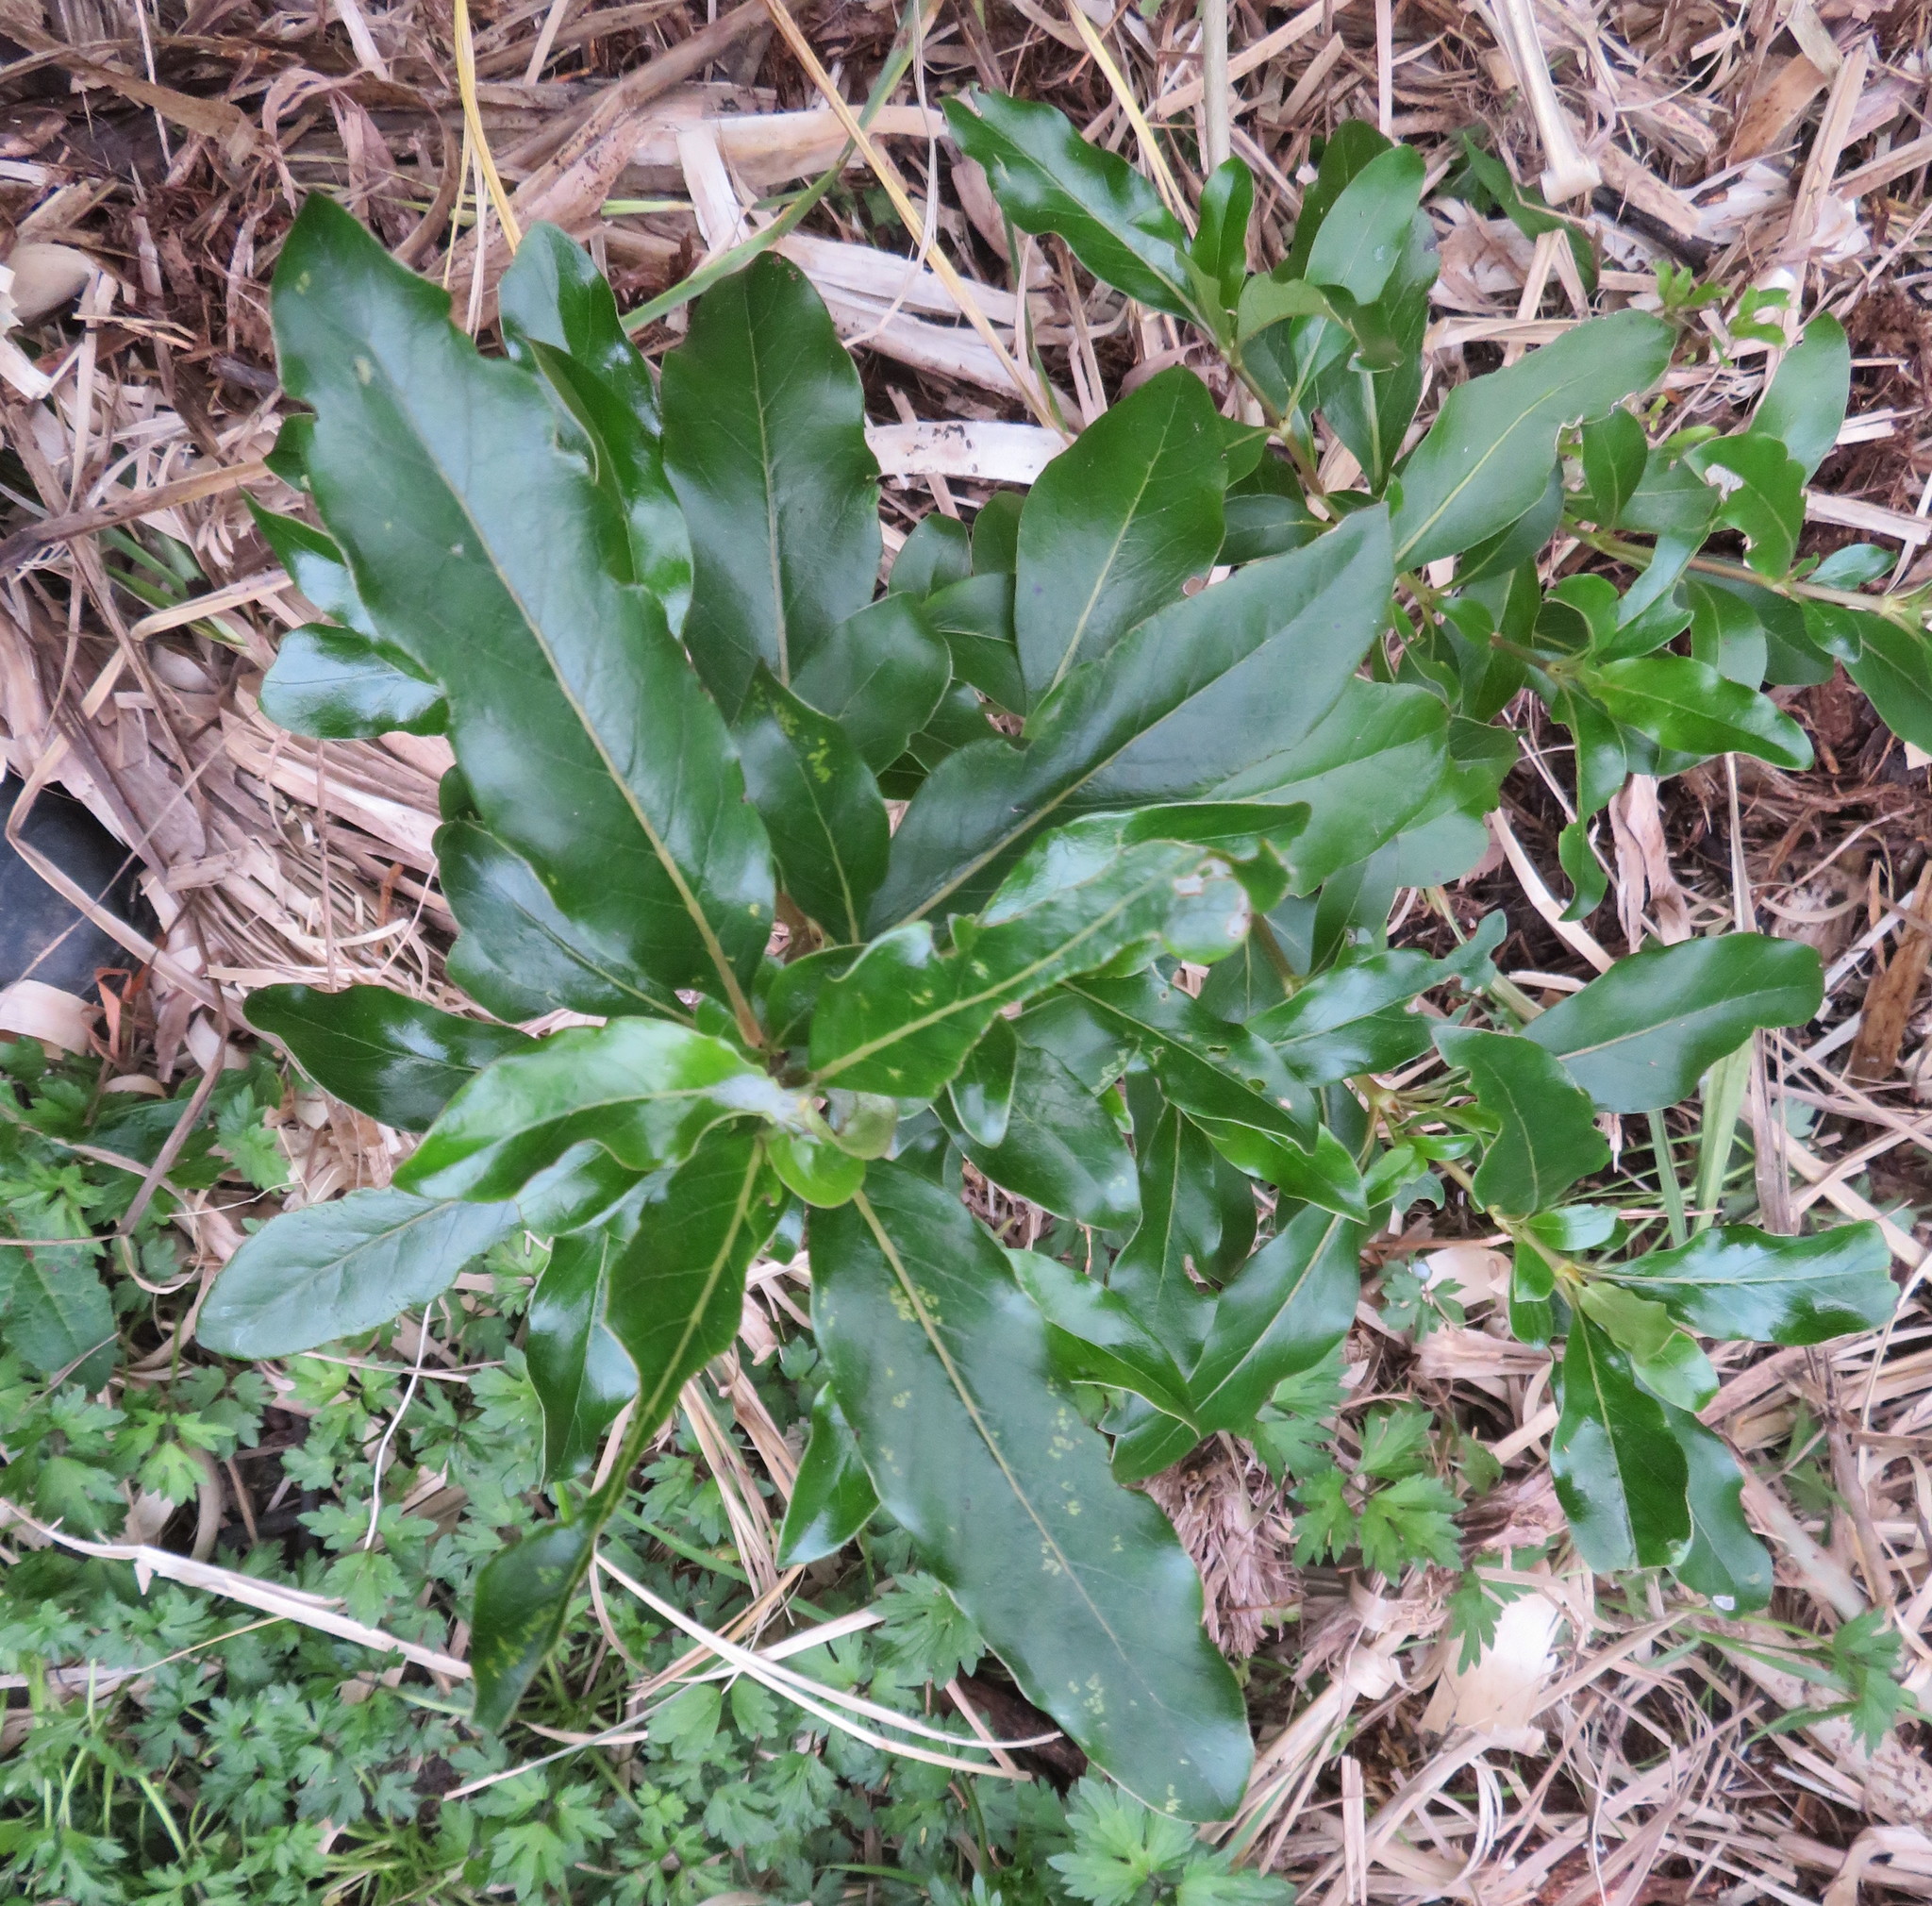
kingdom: Plantae
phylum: Tracheophyta
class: Magnoliopsida
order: Gentianales
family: Rubiaceae
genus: Coprosma
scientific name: Coprosma robusta
